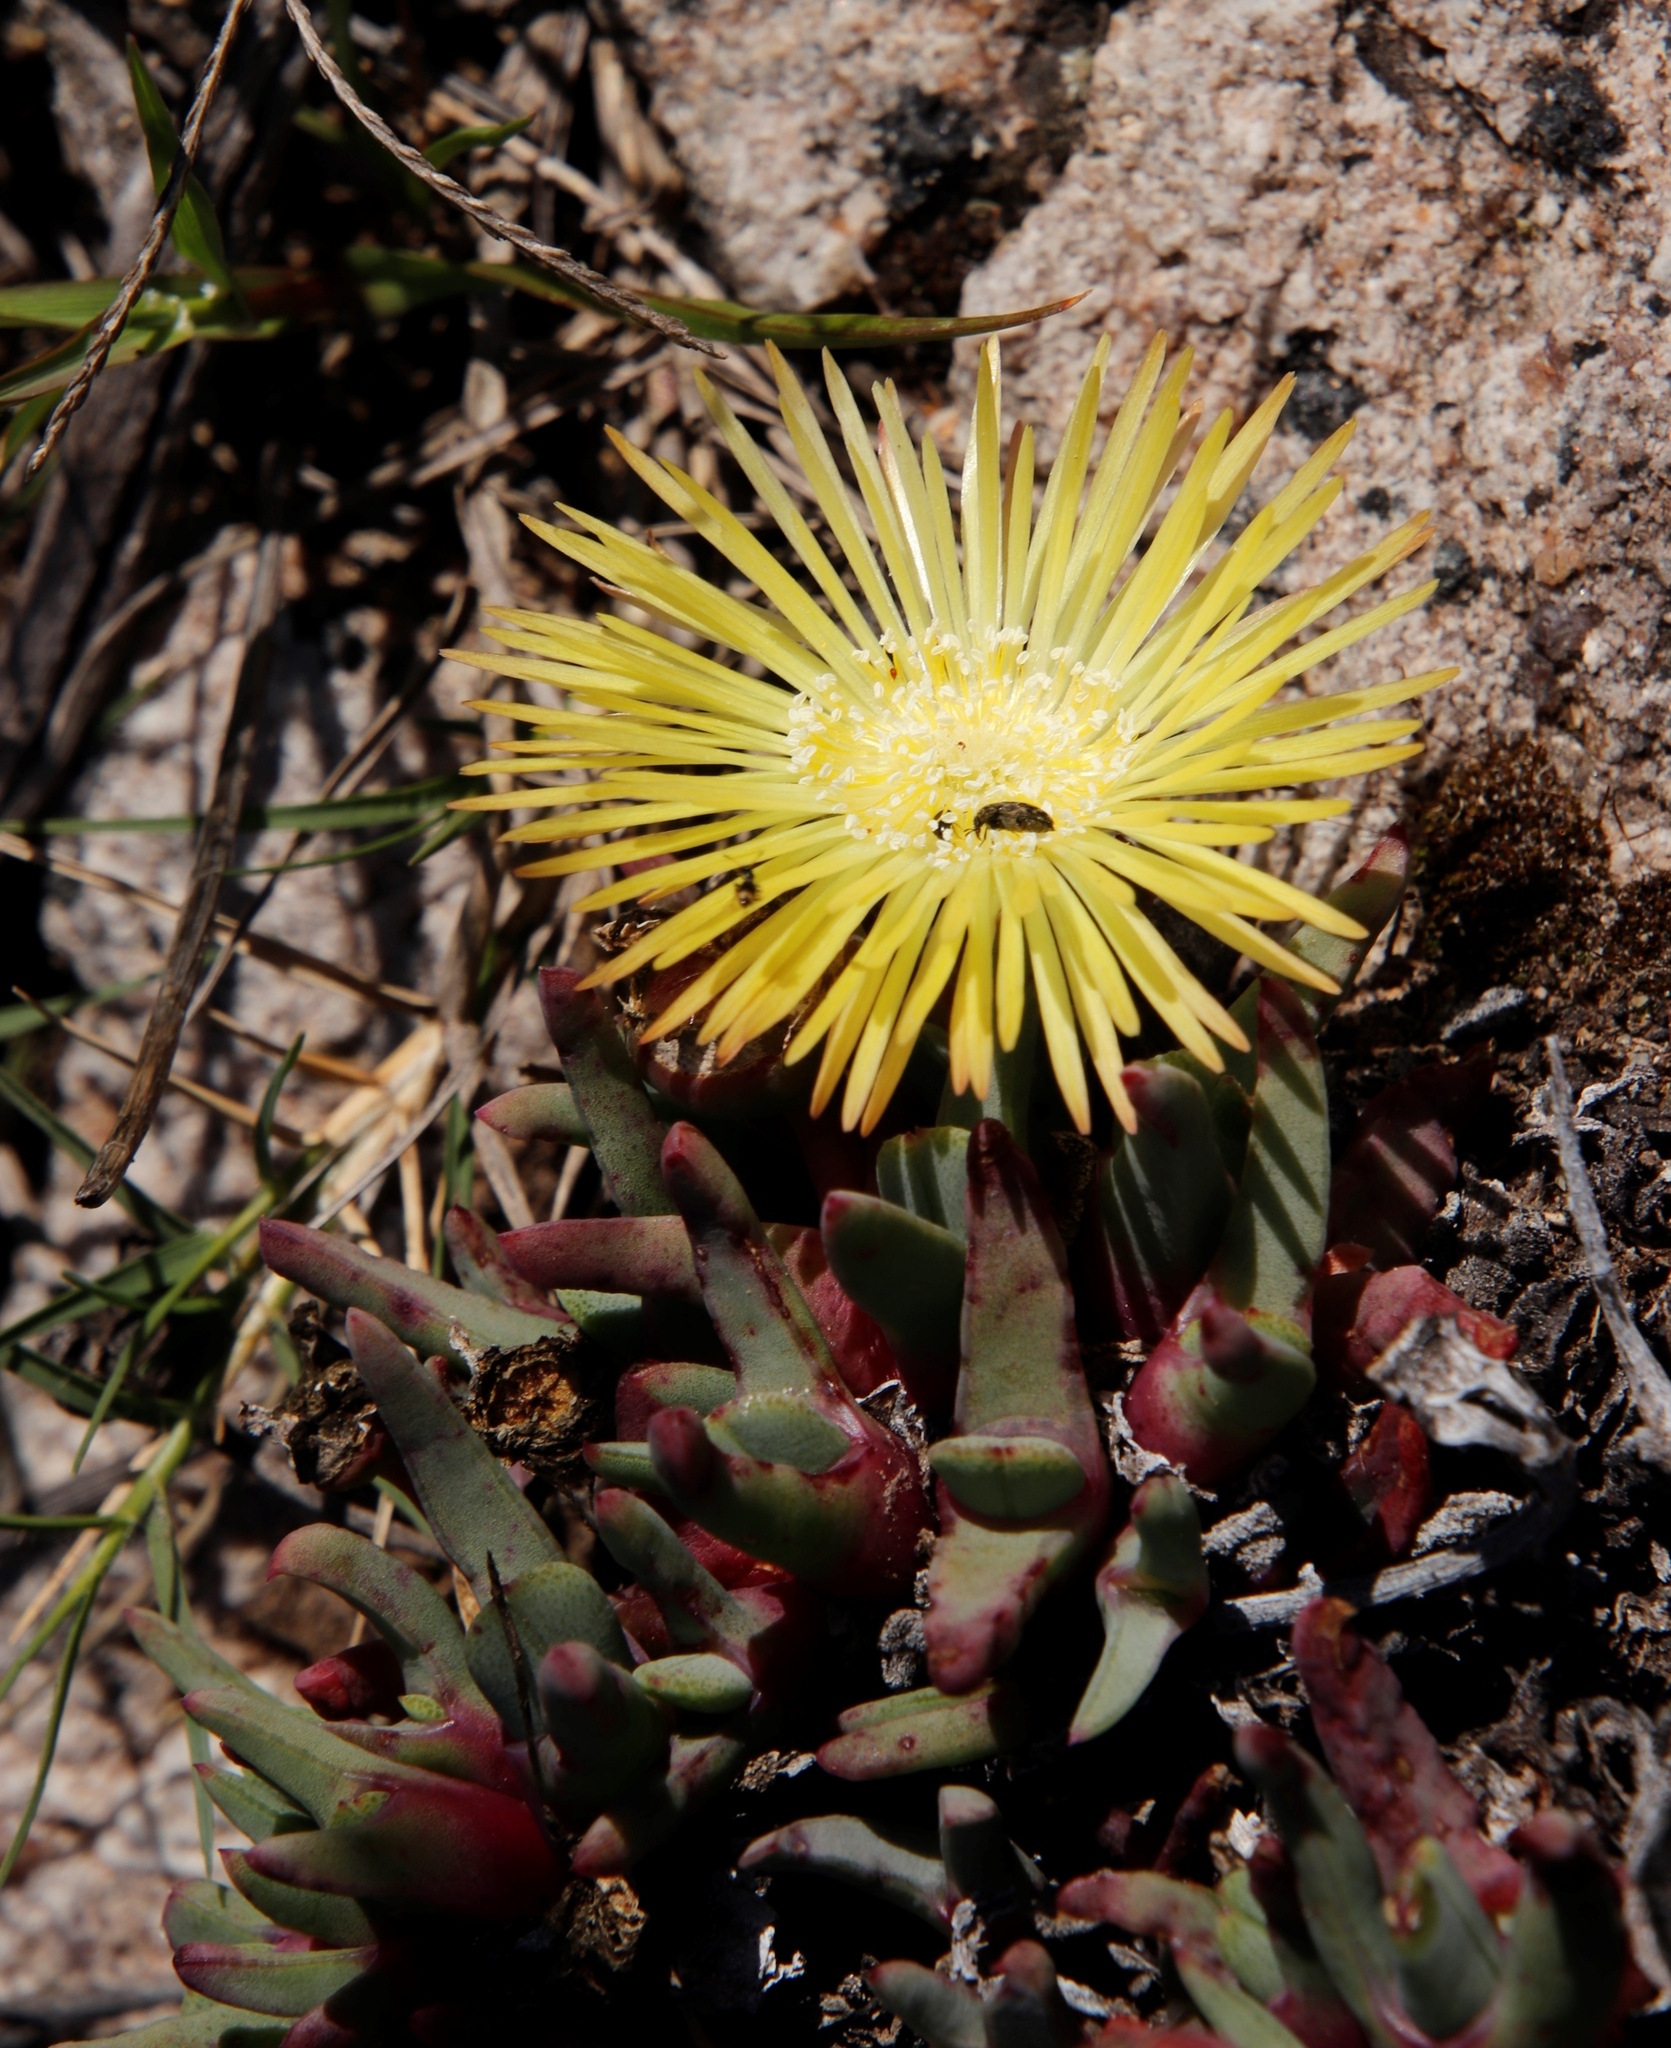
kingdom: Plantae
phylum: Tracheophyta
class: Magnoliopsida
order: Caryophyllales
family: Aizoaceae
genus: Cheiridopsis
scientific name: Cheiridopsis rostrata
